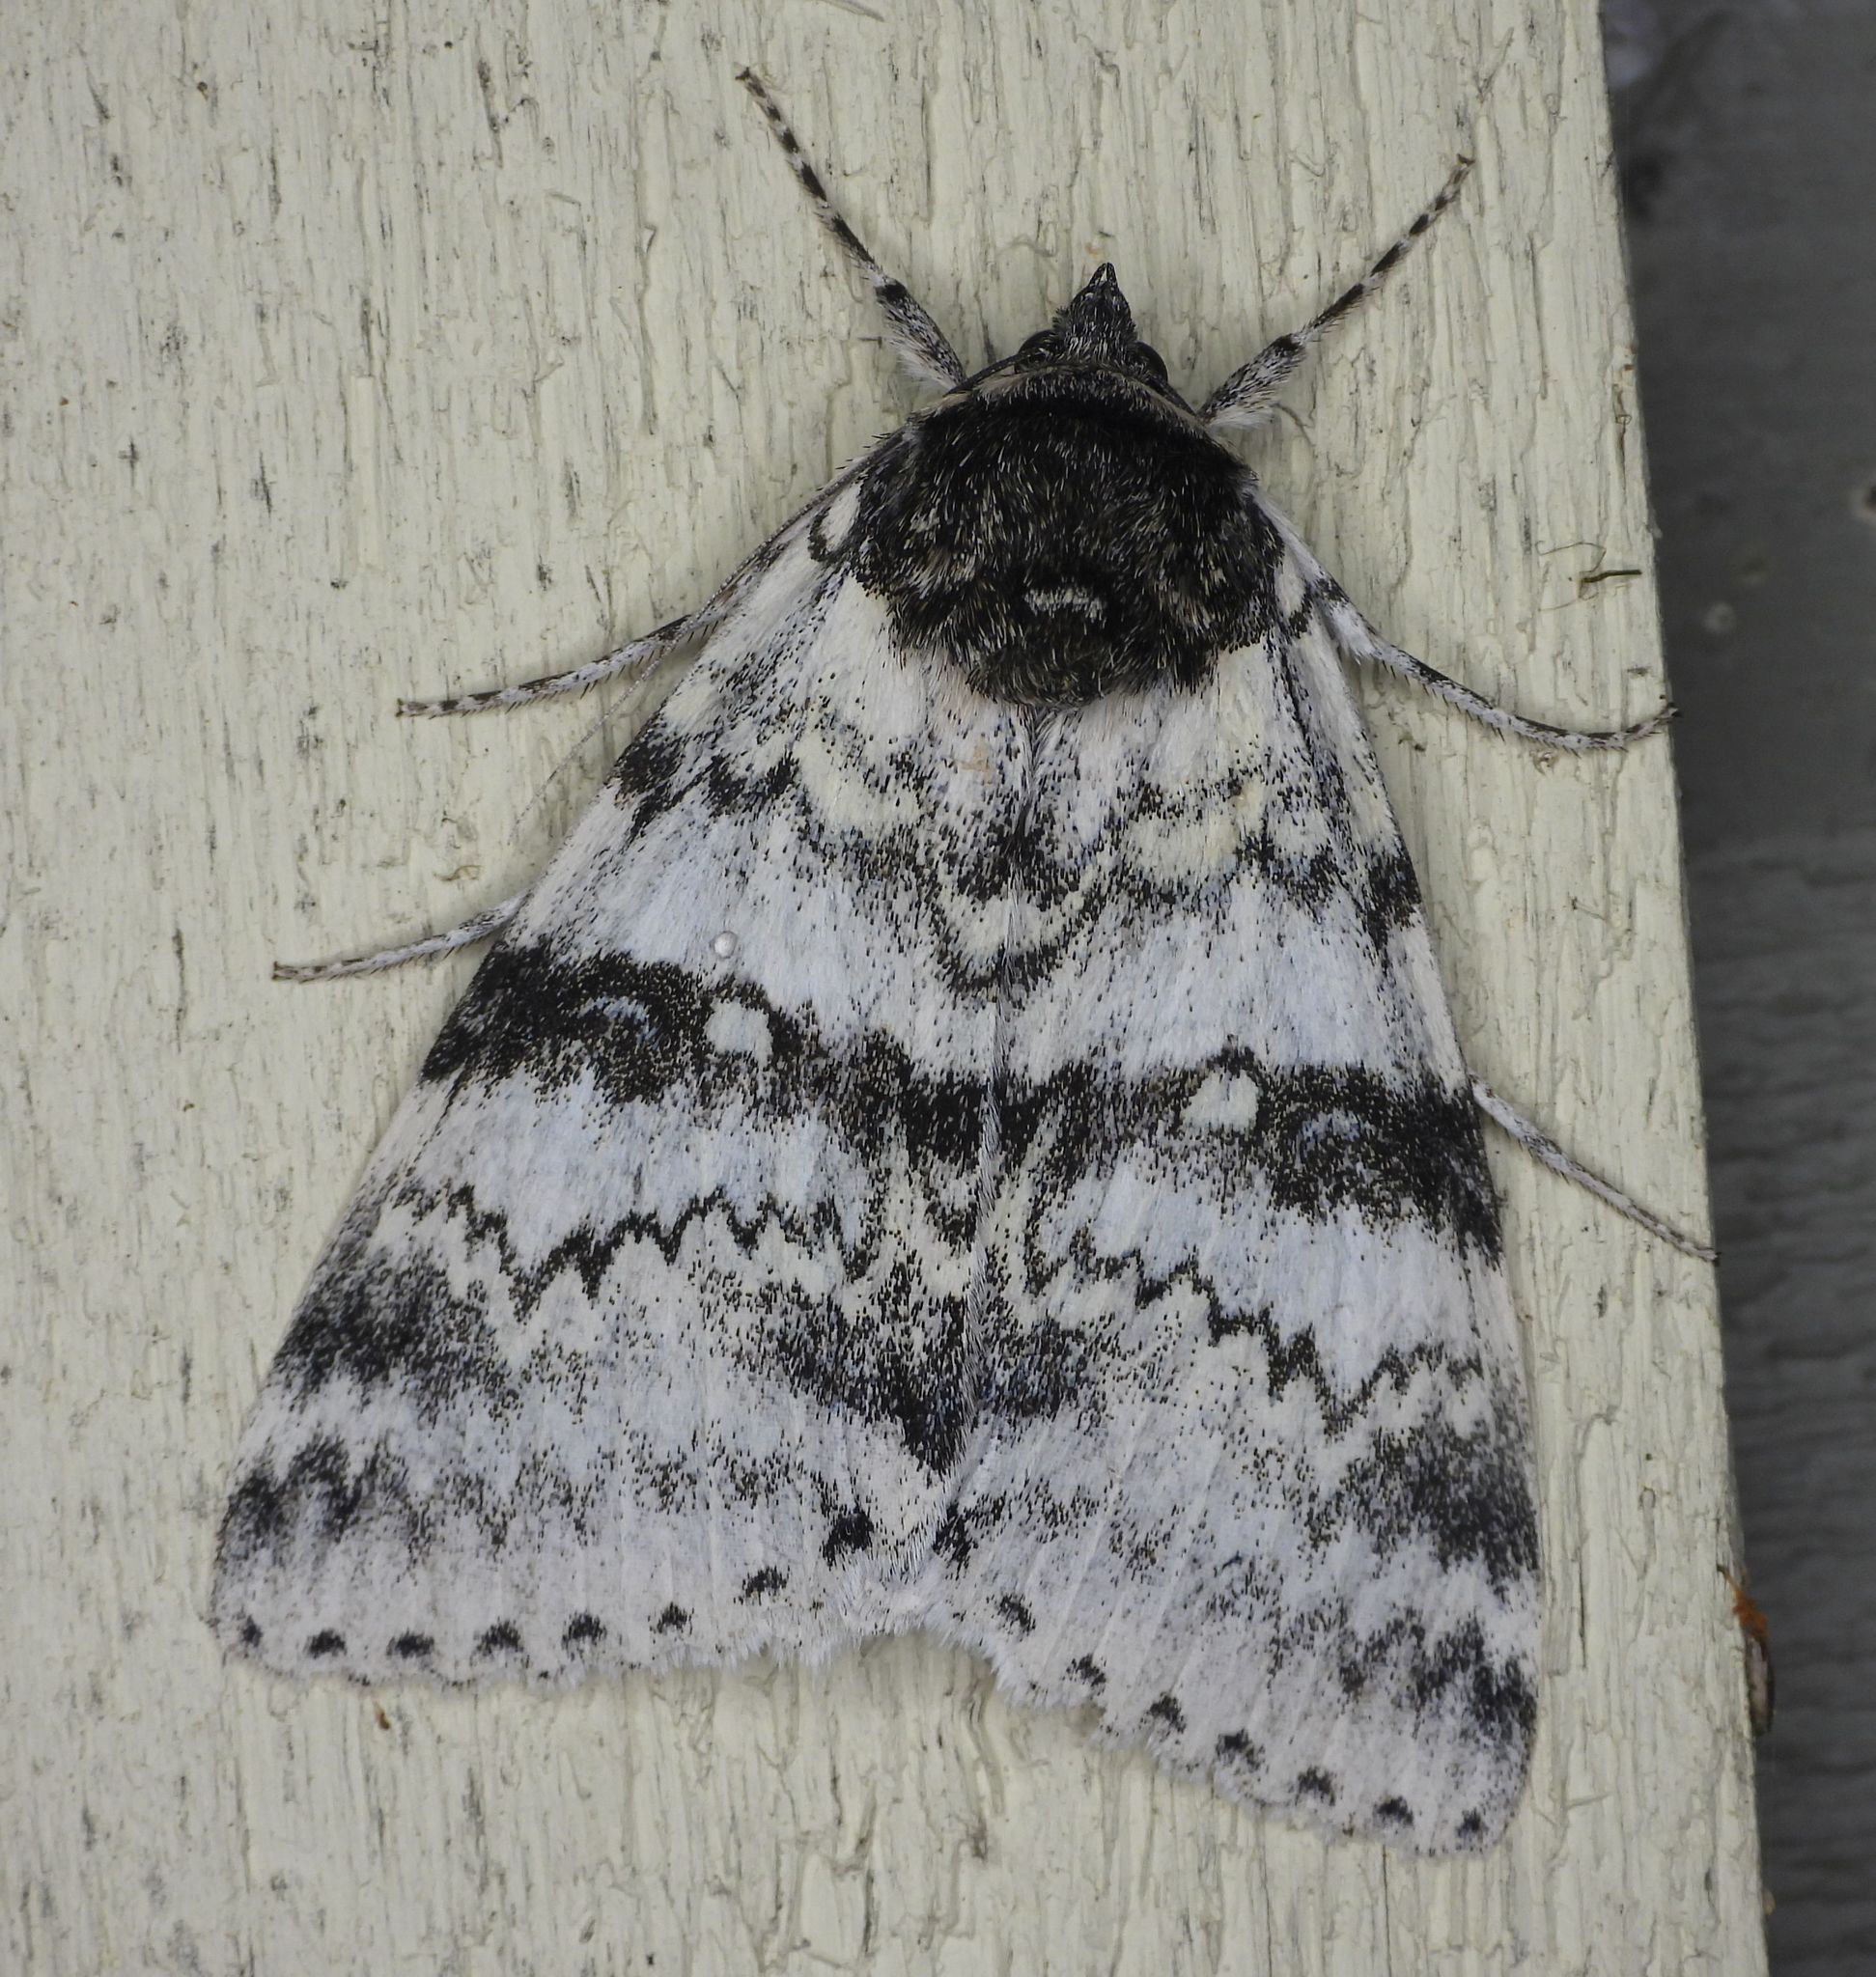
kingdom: Animalia
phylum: Arthropoda
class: Insecta
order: Lepidoptera
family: Erebidae
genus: Catocala
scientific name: Catocala relicta
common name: White underwing
